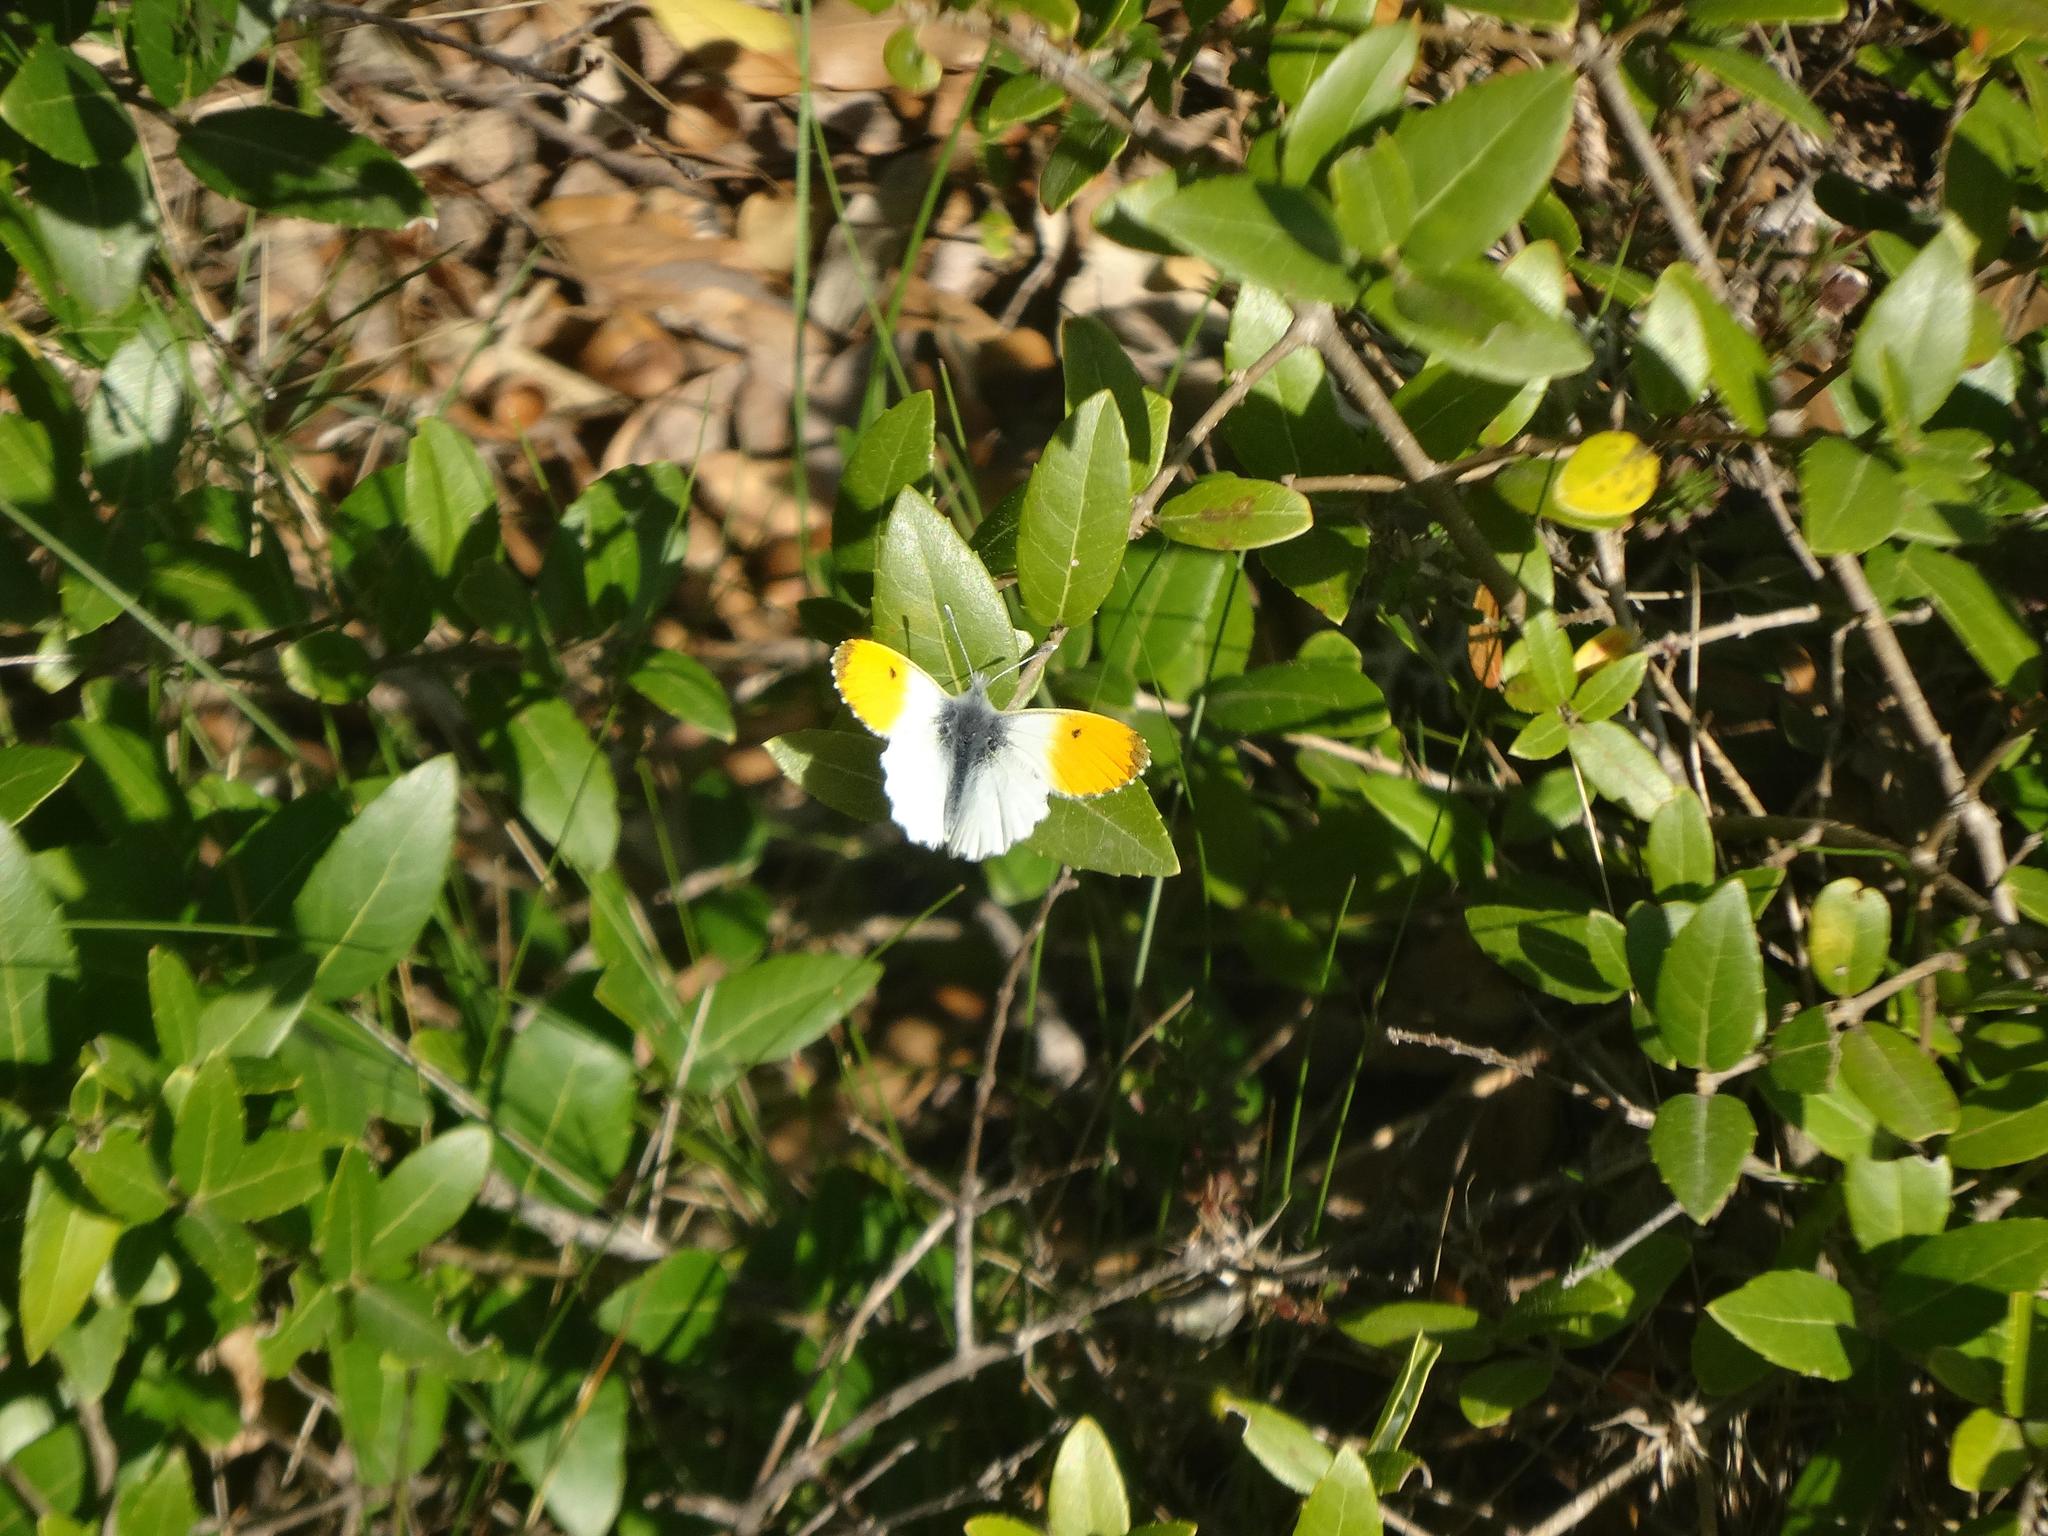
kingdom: Animalia
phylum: Arthropoda
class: Insecta
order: Lepidoptera
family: Pieridae
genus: Anthocharis
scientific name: Anthocharis cardamines
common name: Orange-tip
